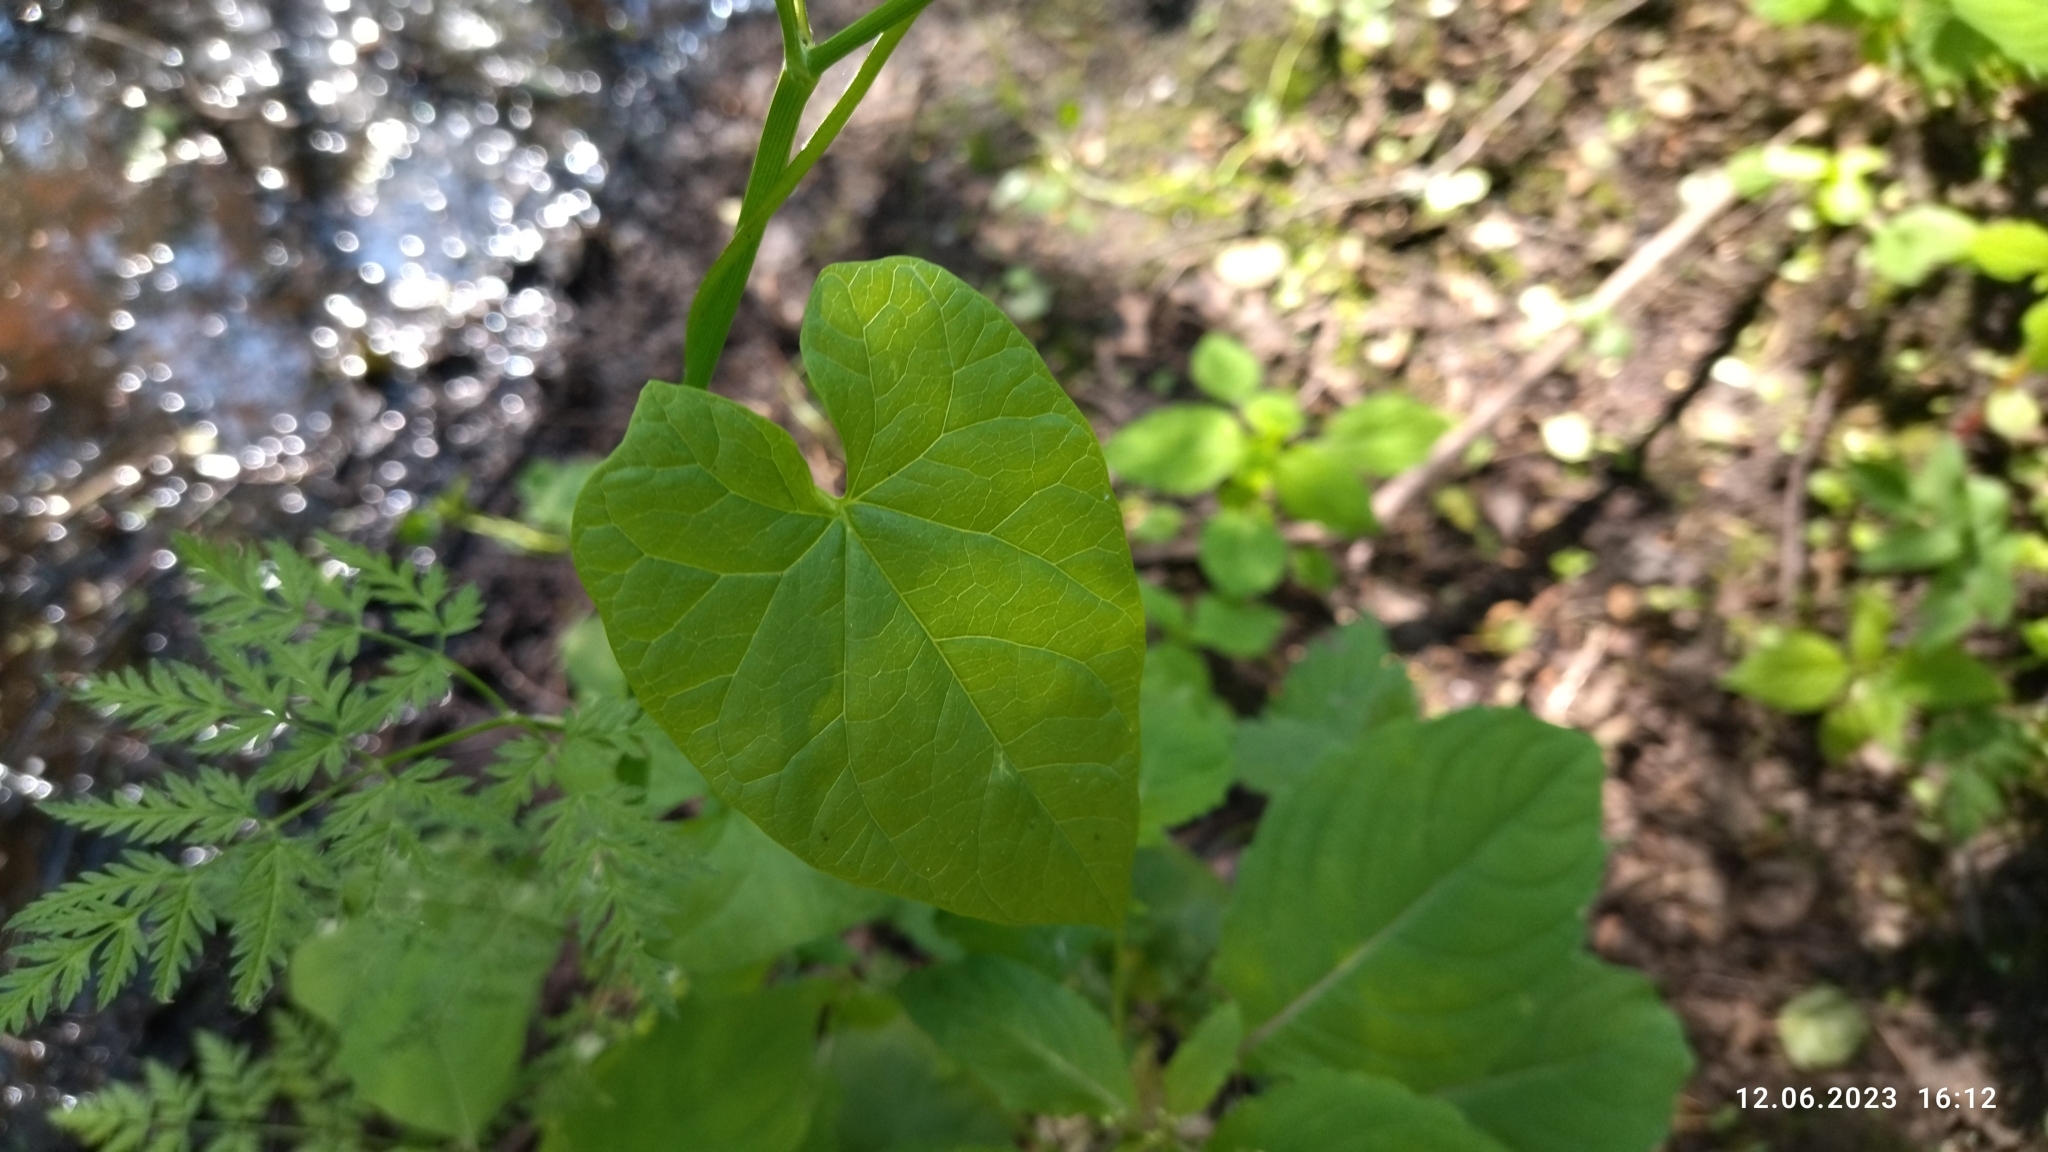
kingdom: Plantae
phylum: Tracheophyta
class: Magnoliopsida
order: Solanales
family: Convolvulaceae
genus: Calystegia
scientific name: Calystegia sepium
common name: Hedge bindweed
